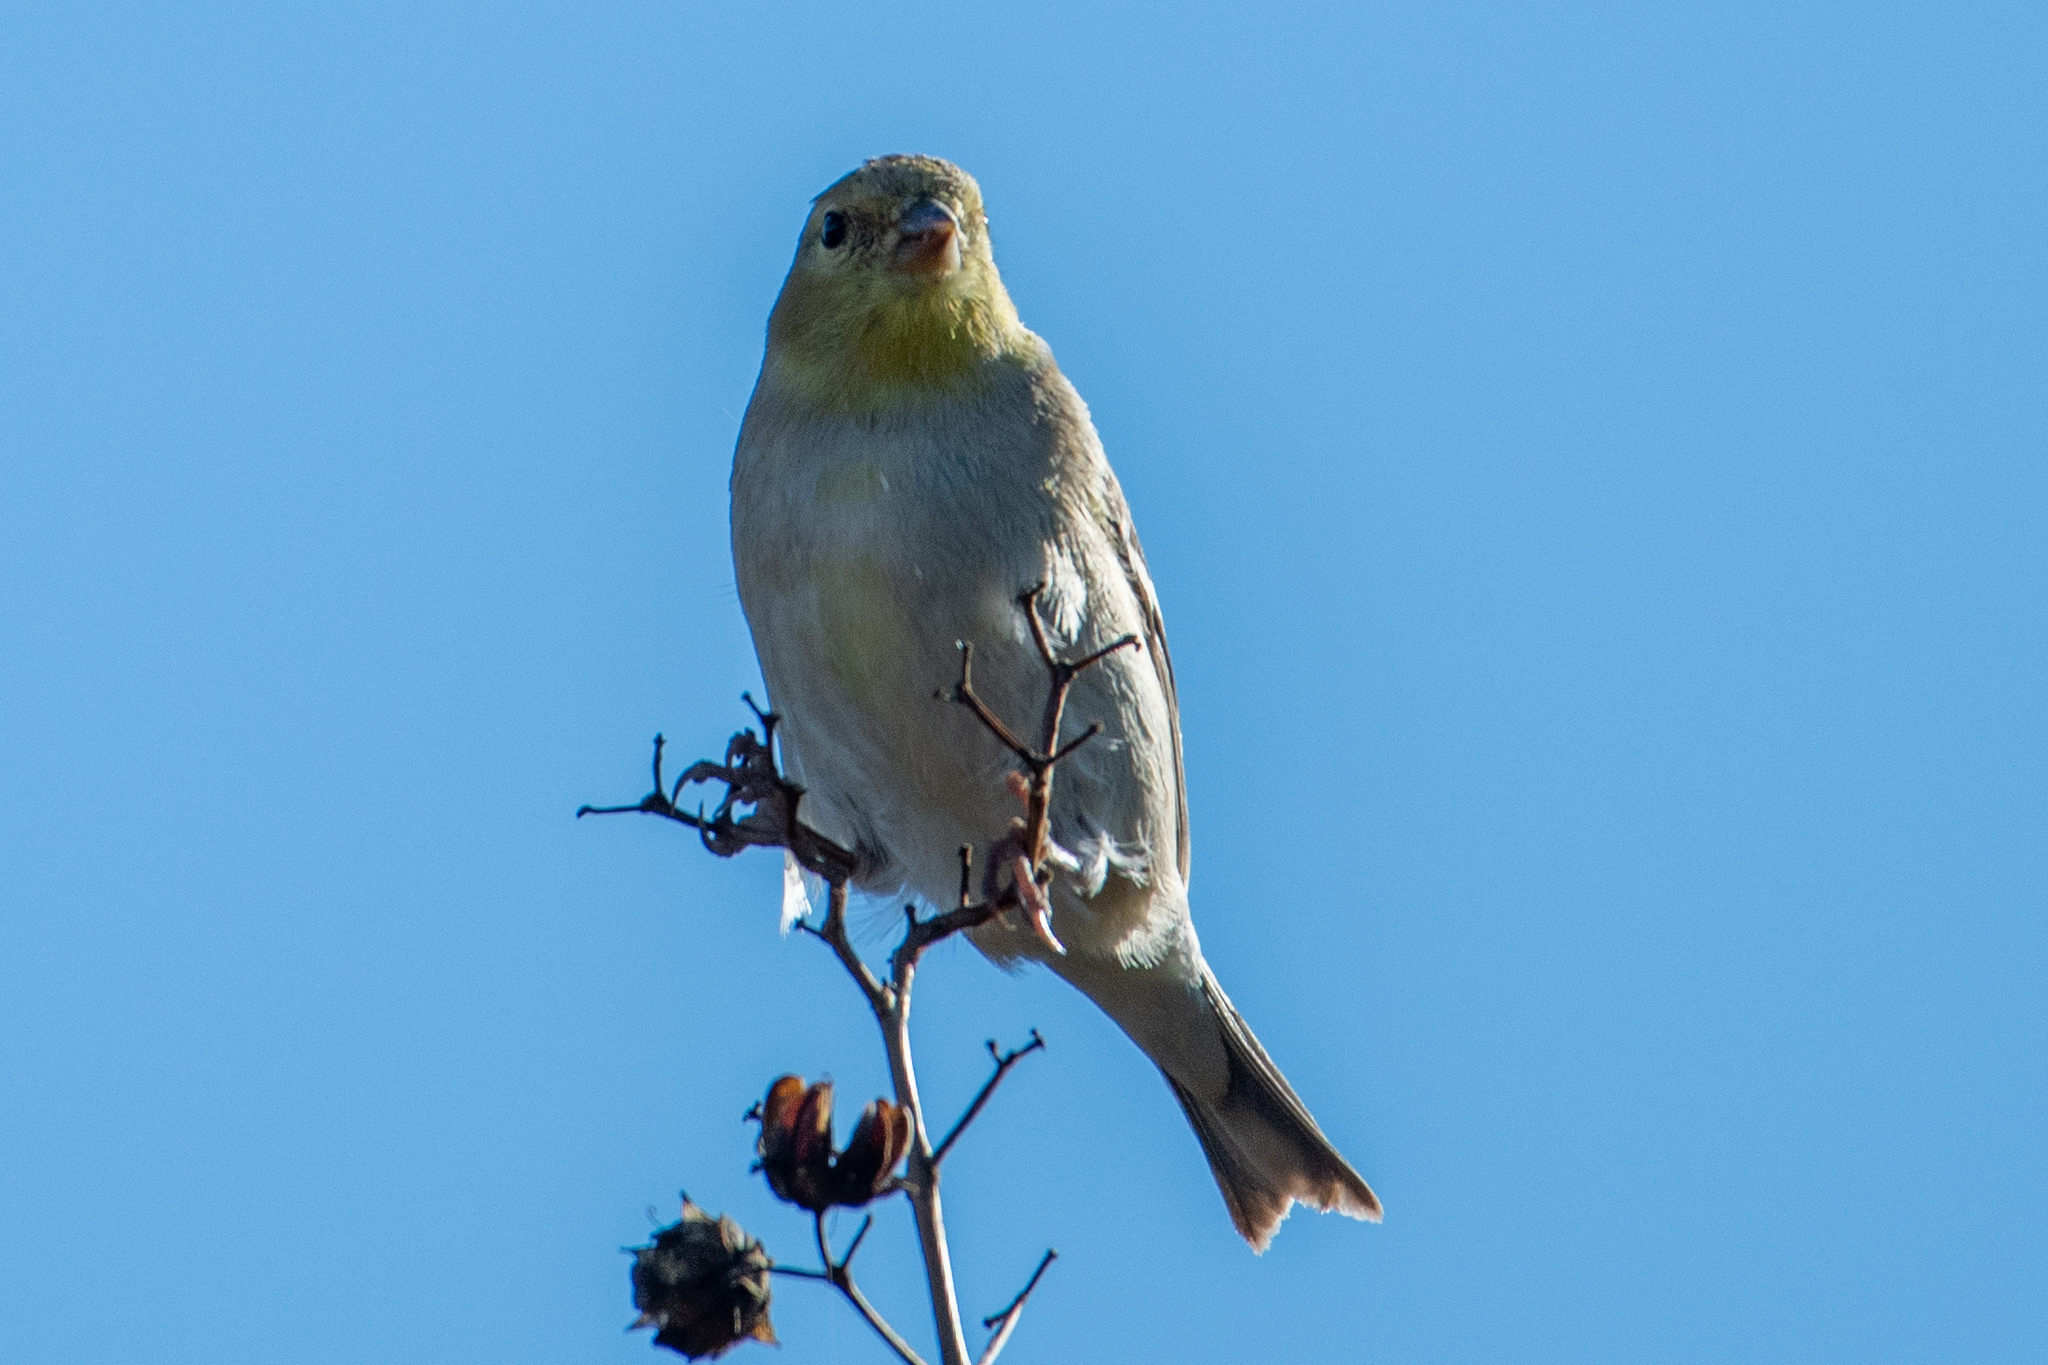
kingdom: Animalia
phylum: Chordata
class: Aves
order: Passeriformes
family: Fringillidae
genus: Spinus
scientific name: Spinus tristis
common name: American goldfinch
